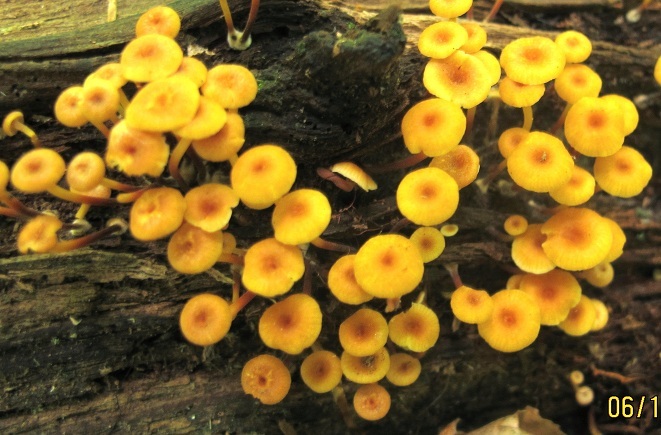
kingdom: Fungi
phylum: Basidiomycota
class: Agaricomycetes
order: Agaricales
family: Mycenaceae
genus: Xeromphalina
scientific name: Xeromphalina kauffmanii
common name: Cross-veined troop mushroom
